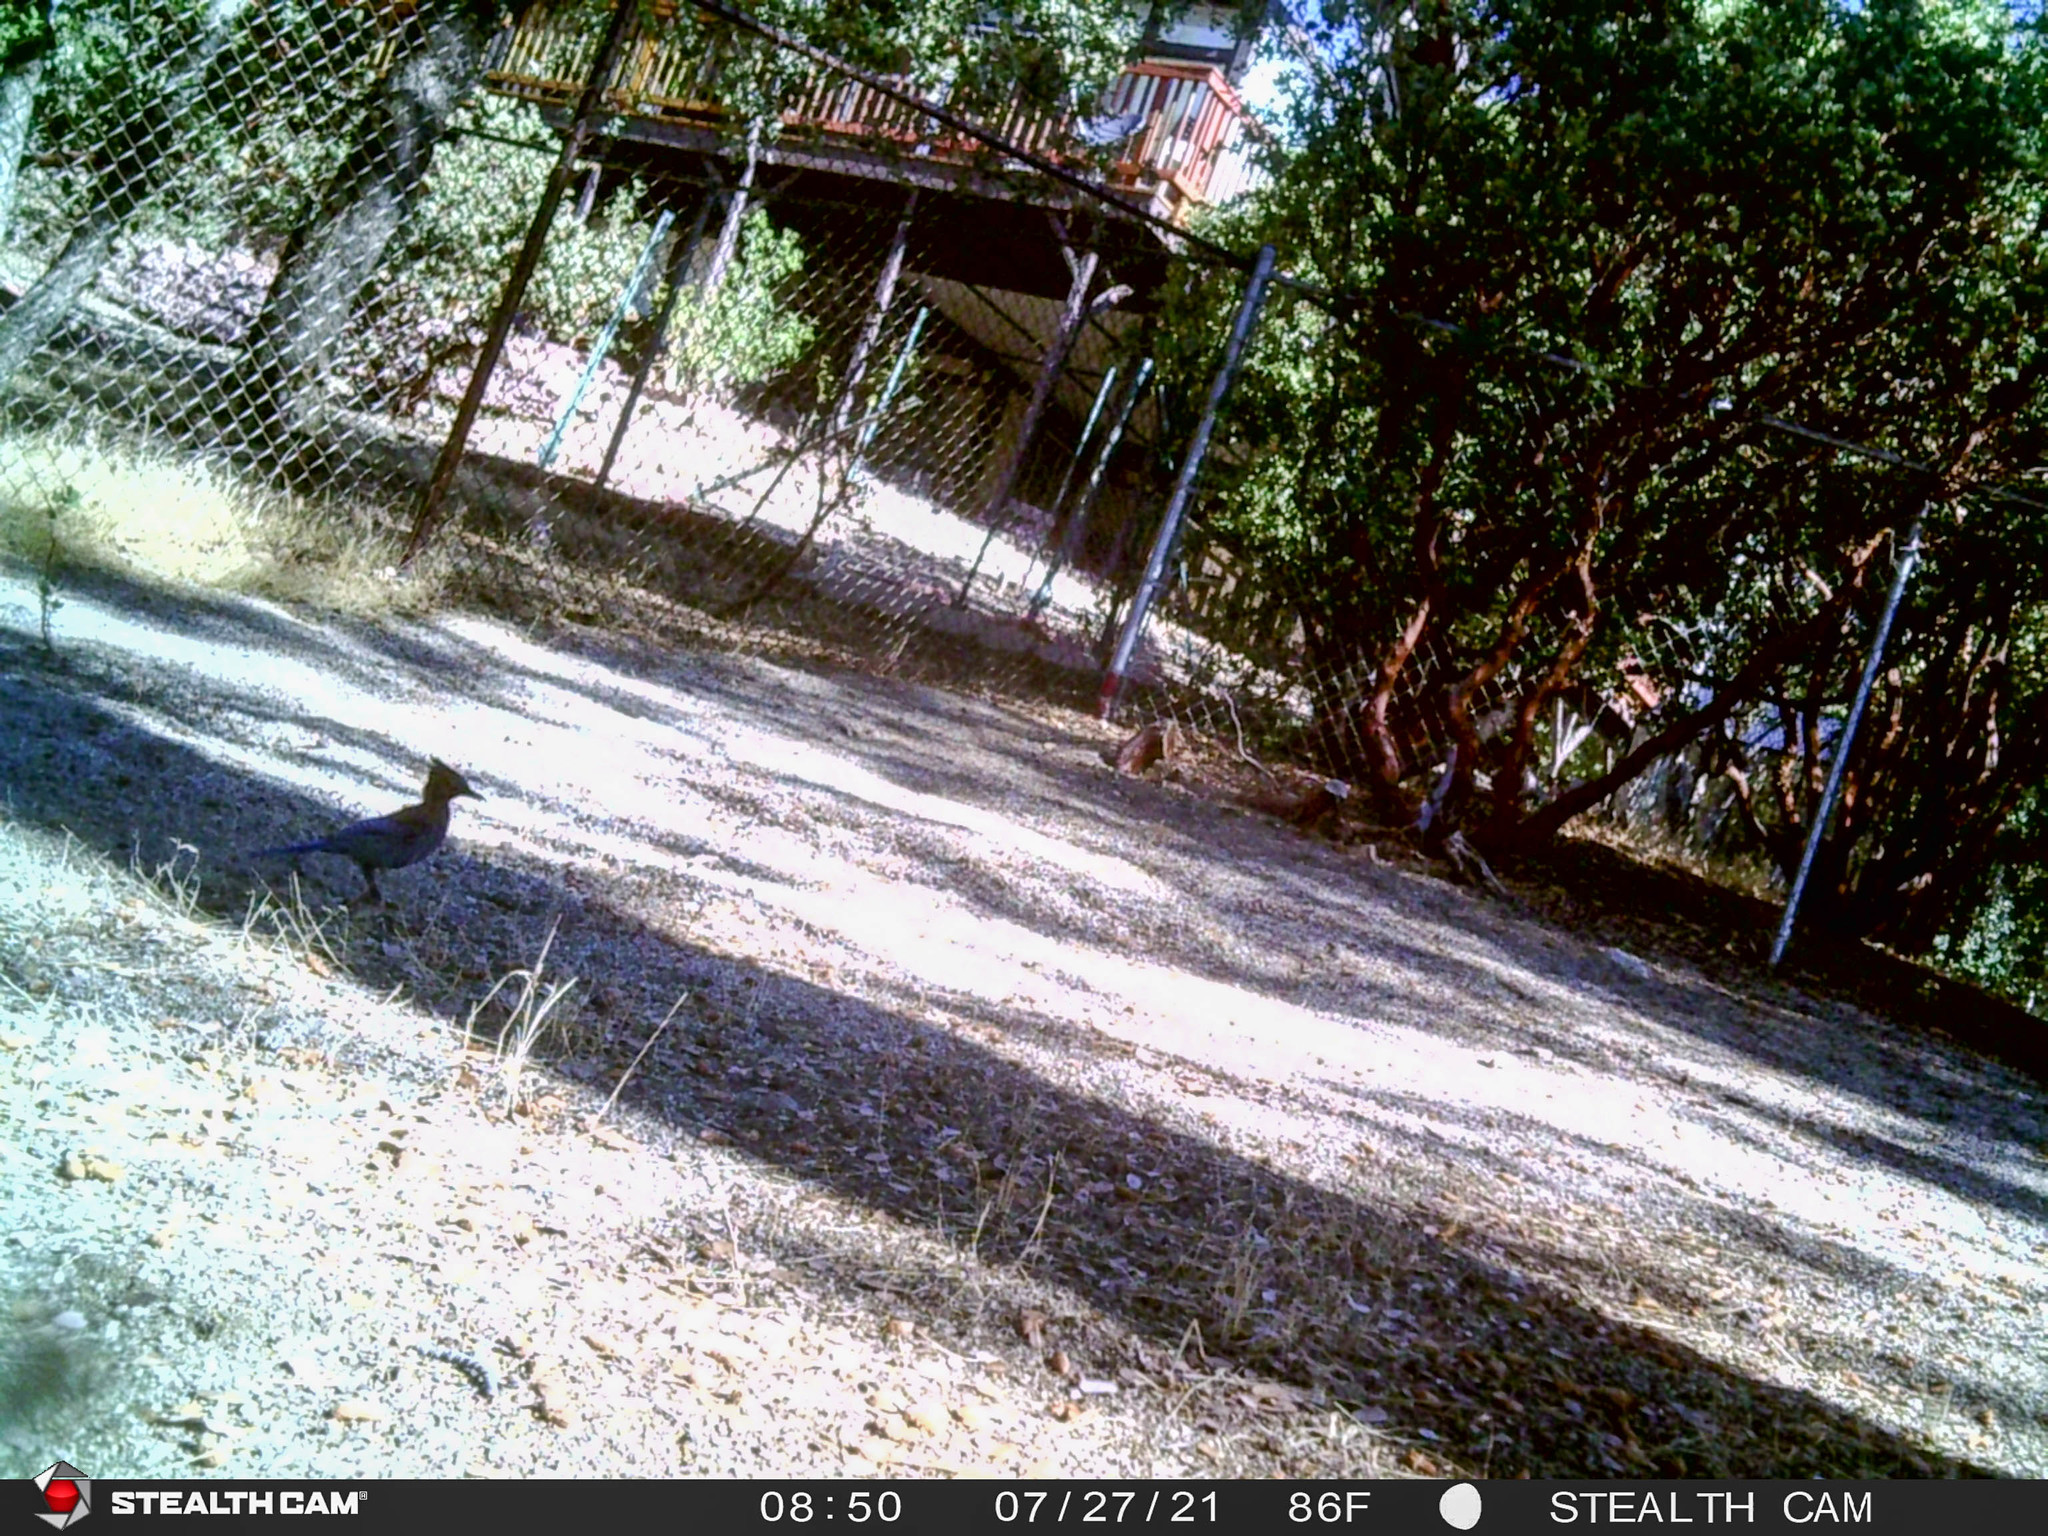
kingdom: Animalia
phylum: Chordata
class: Aves
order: Passeriformes
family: Corvidae
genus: Cyanocitta
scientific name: Cyanocitta stelleri
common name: Steller's jay
